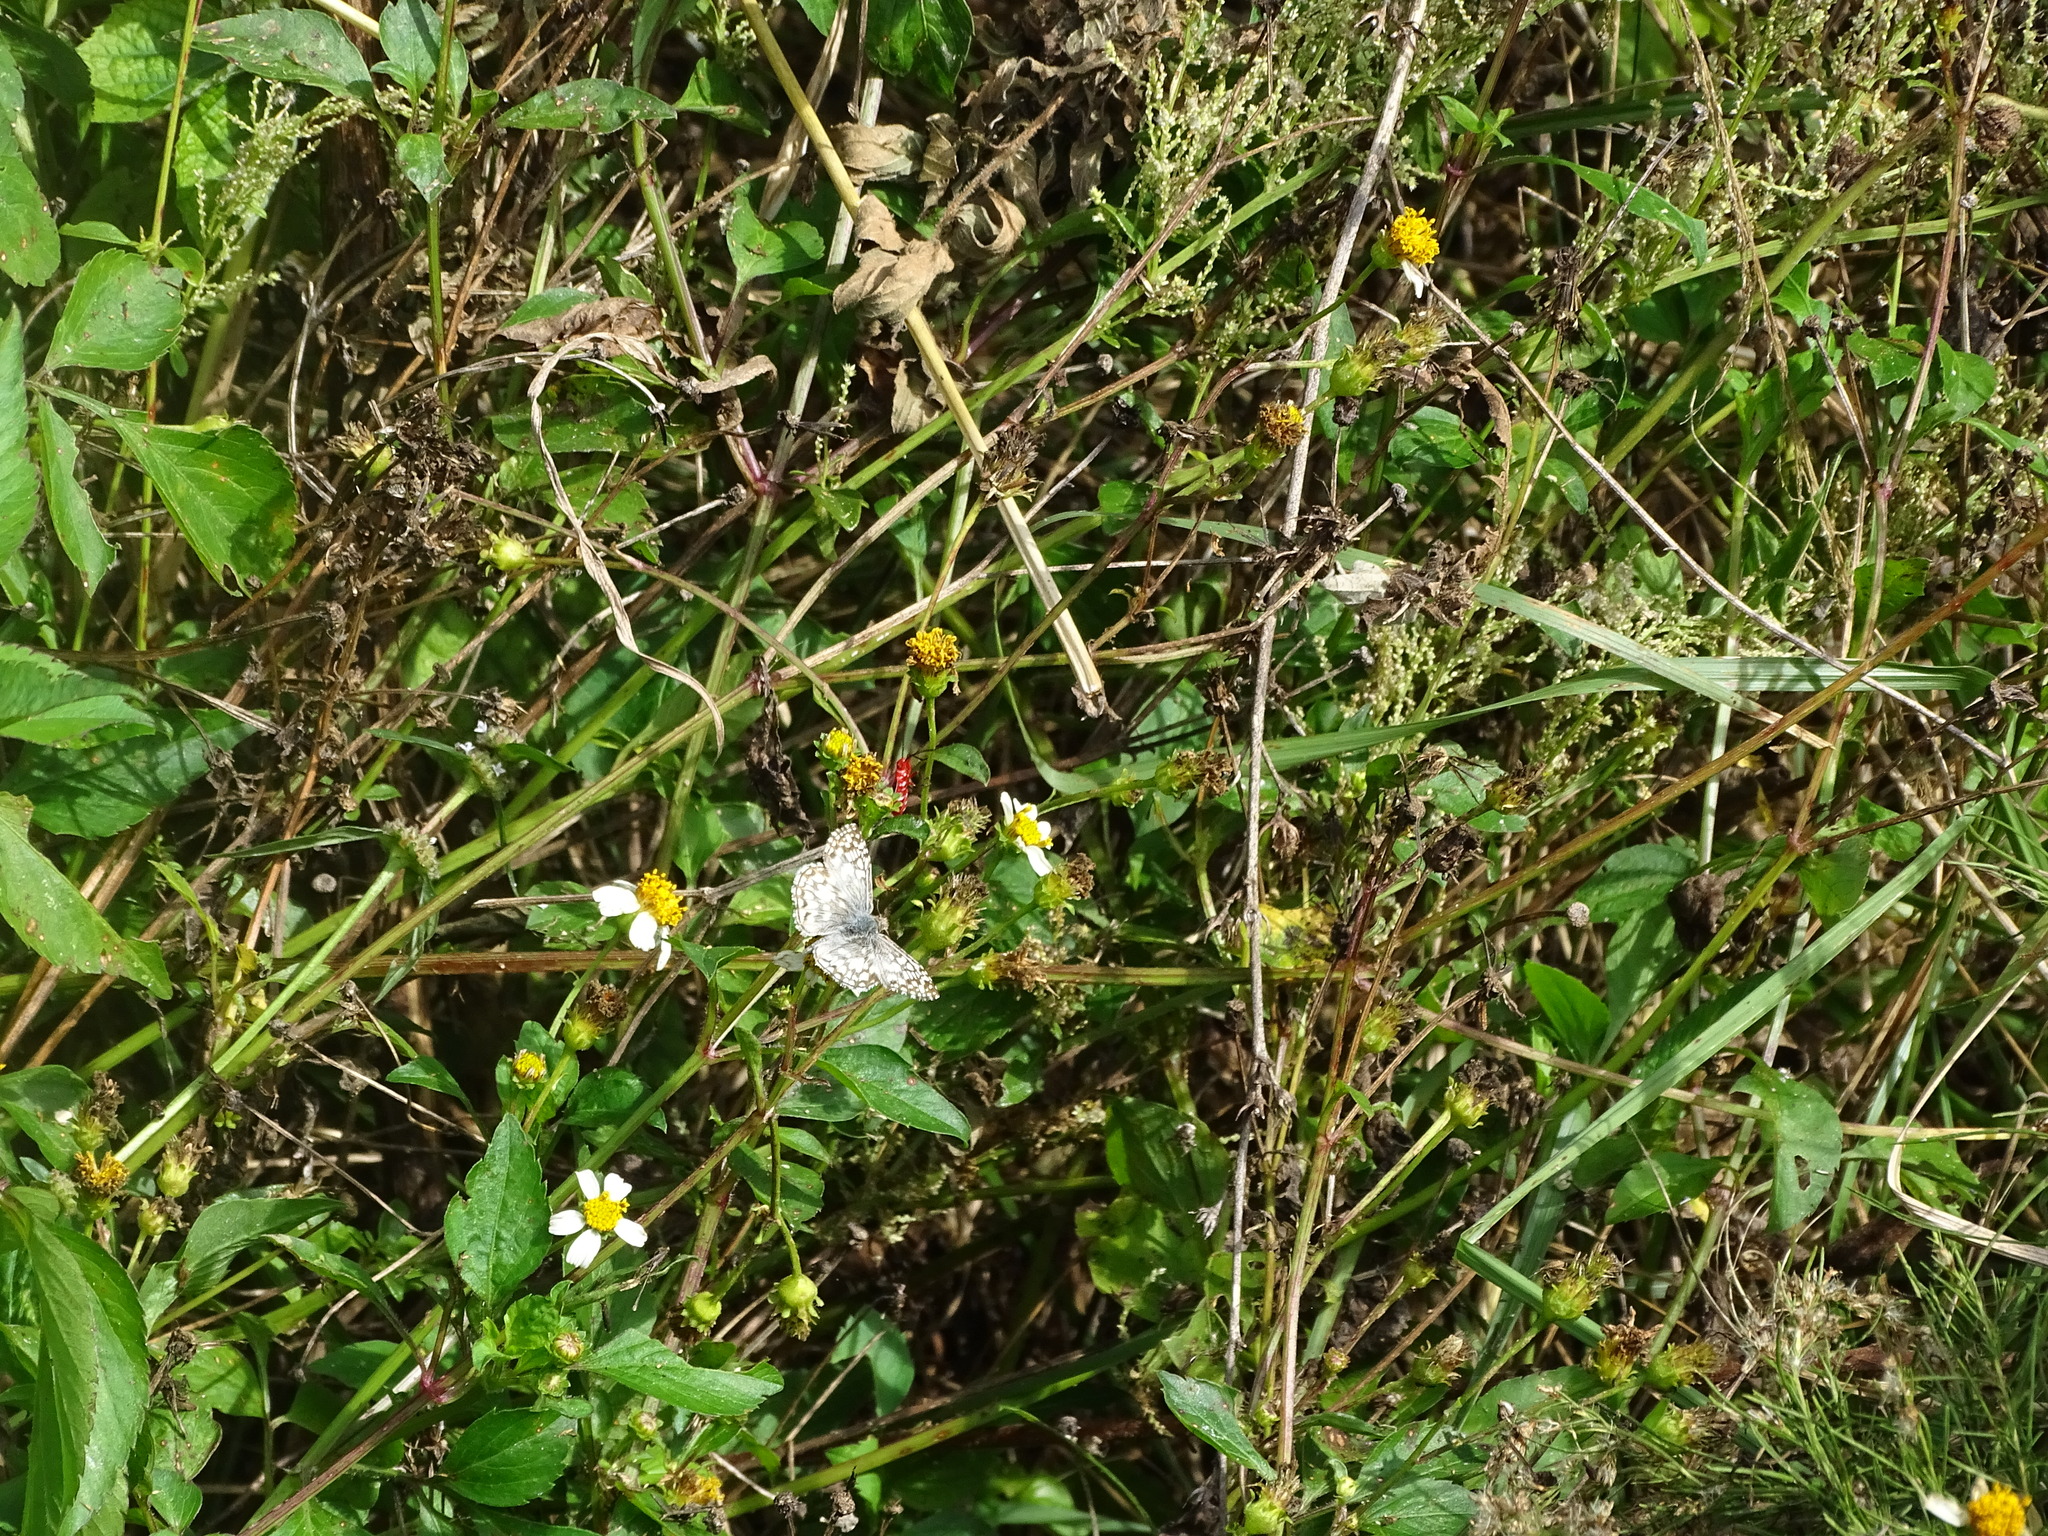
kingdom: Animalia
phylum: Arthropoda
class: Insecta
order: Lepidoptera
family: Hesperiidae
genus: Pyrgus
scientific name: Pyrgus oileus
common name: Tropical checkered-skipper
